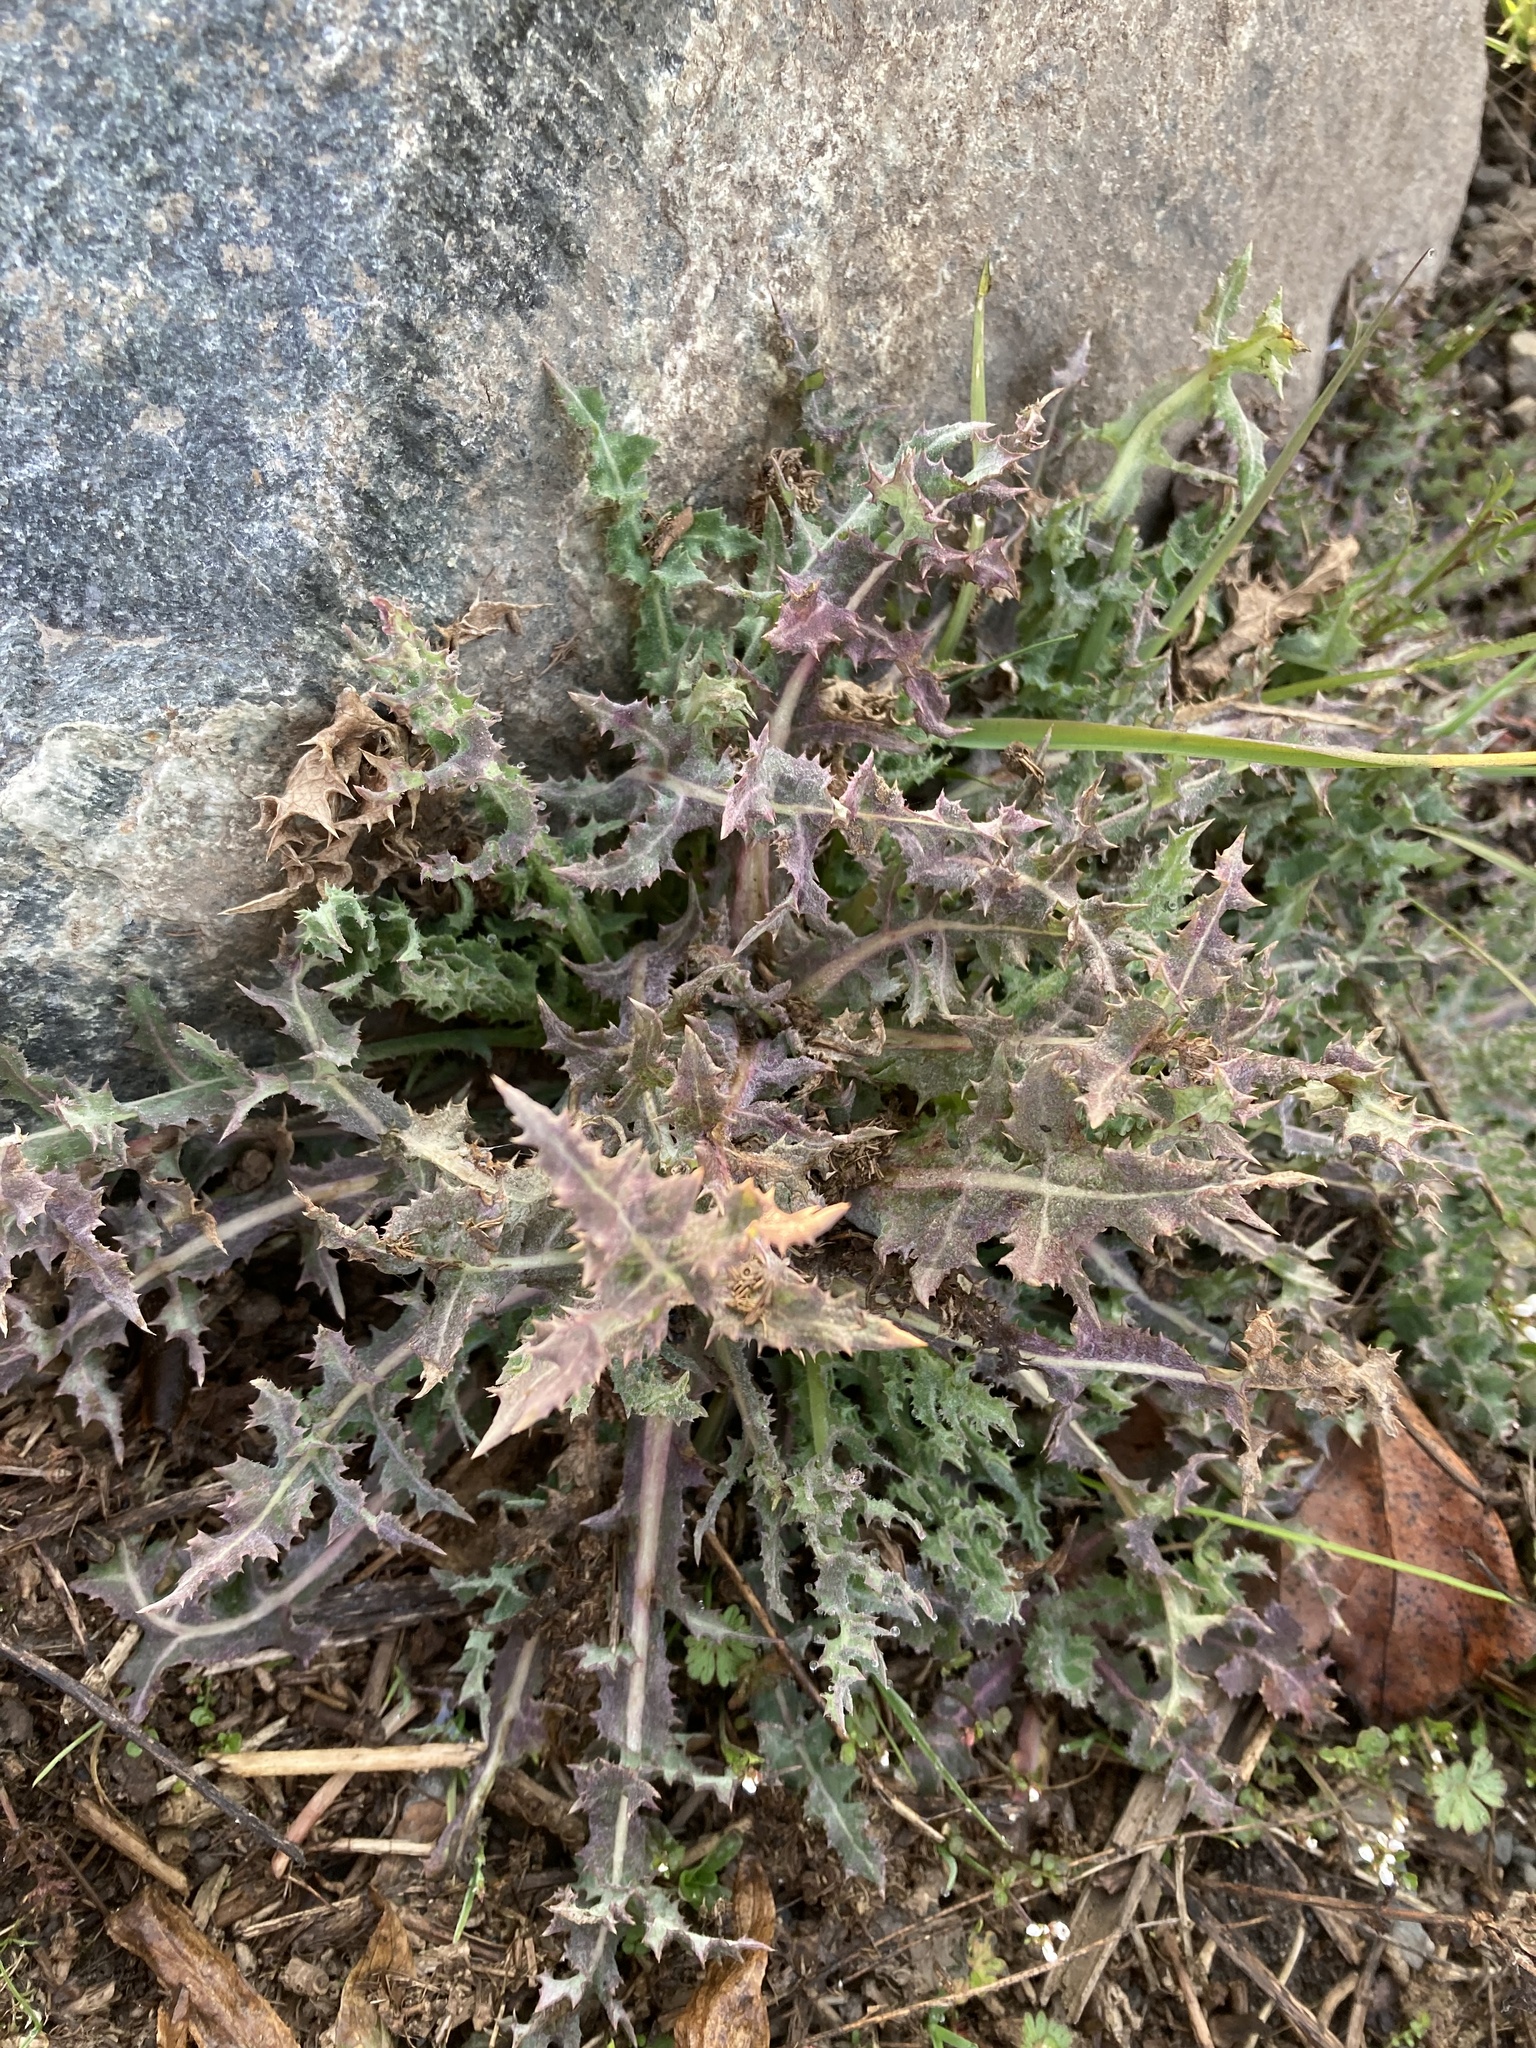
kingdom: Plantae
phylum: Tracheophyta
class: Magnoliopsida
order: Asterales
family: Asteraceae
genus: Sonchus
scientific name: Sonchus asper
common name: Prickly sow-thistle
